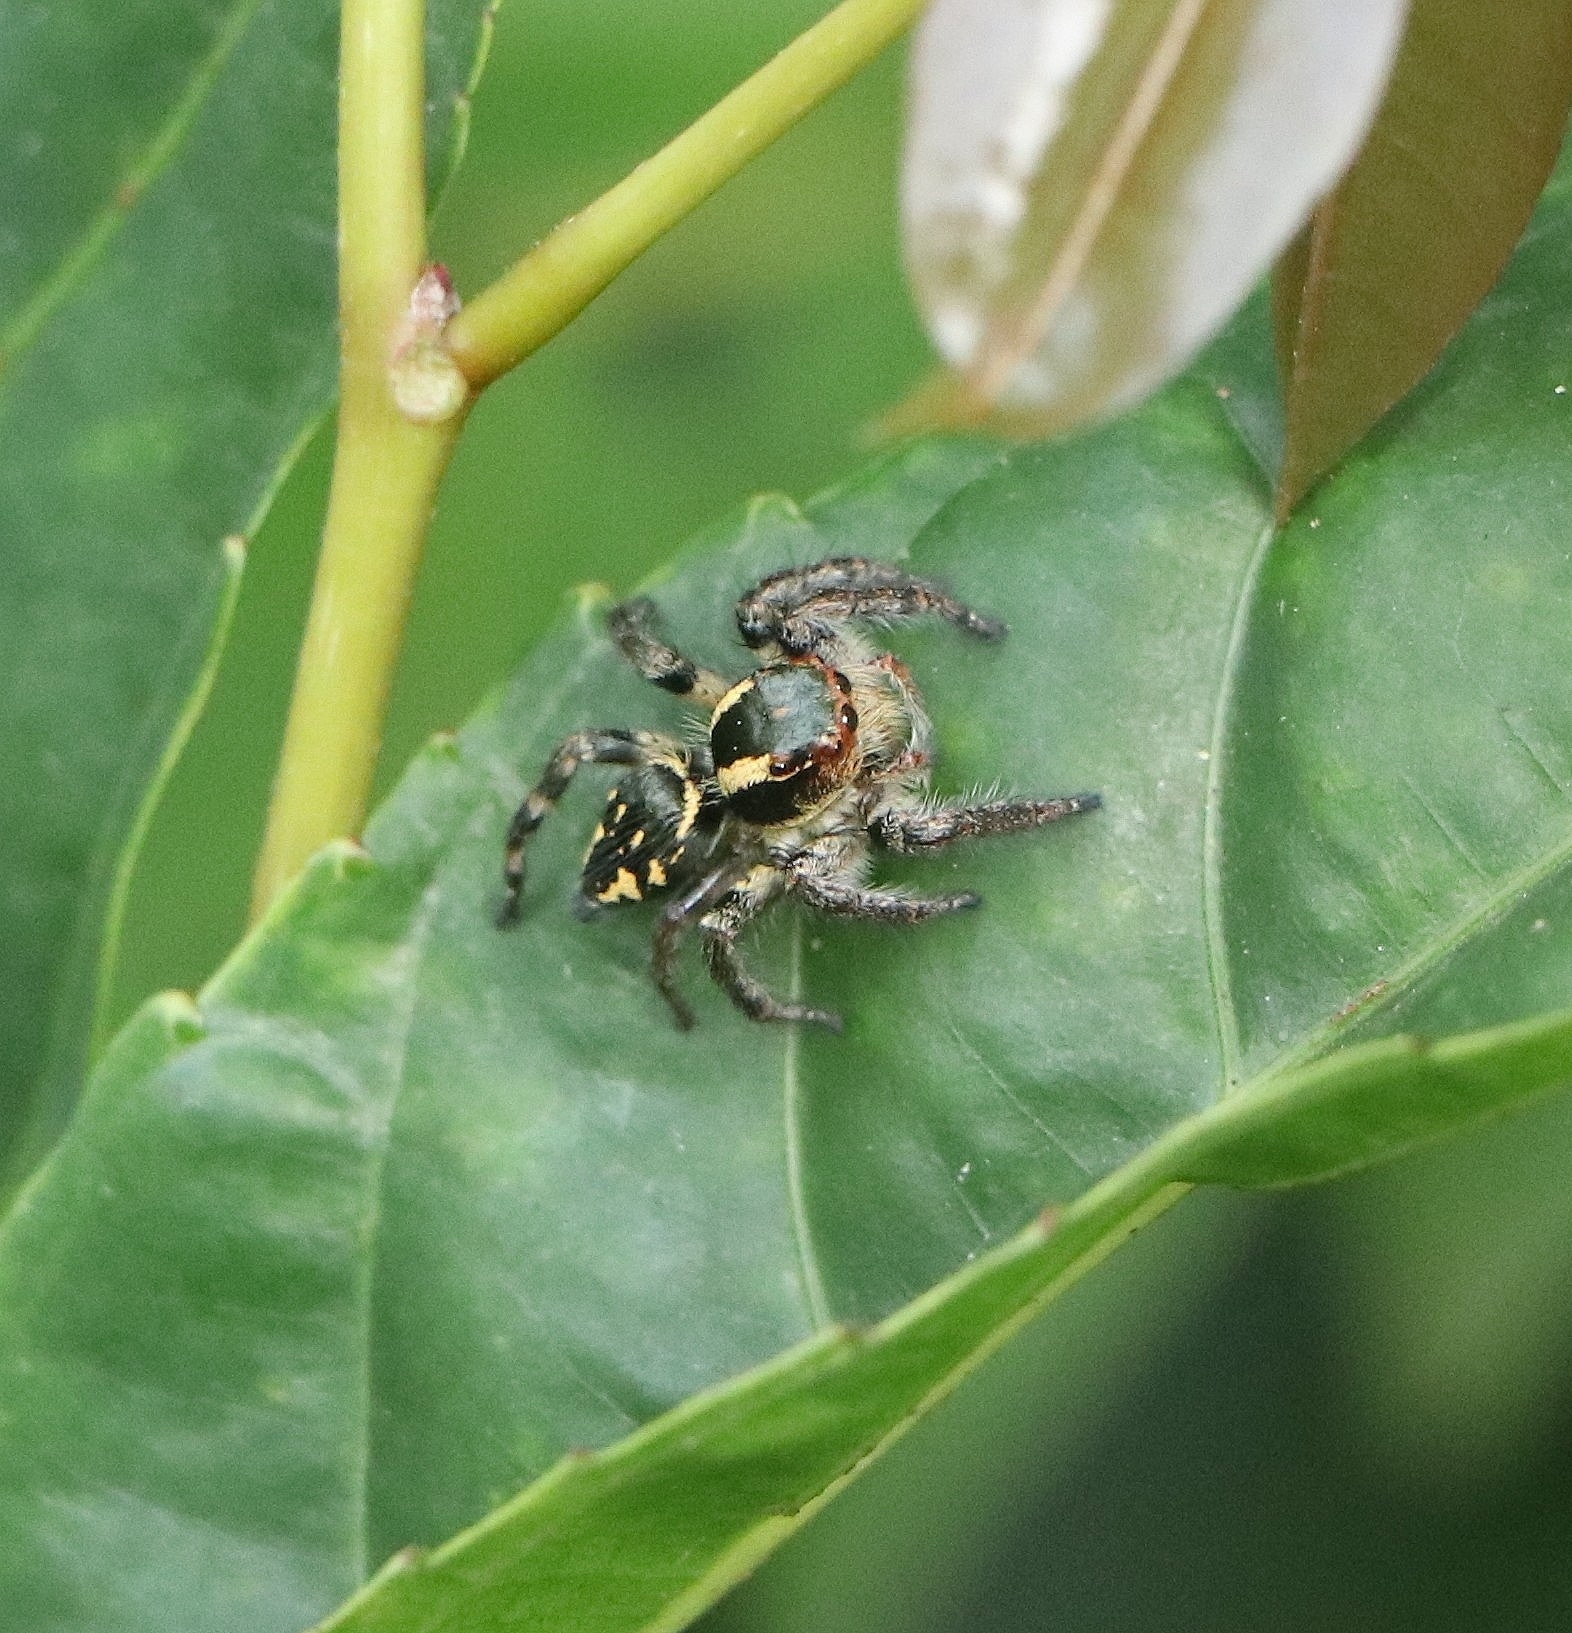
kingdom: Animalia
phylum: Arthropoda
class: Arachnida
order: Araneae
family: Salticidae
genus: Carrhotus
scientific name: Carrhotus viduus
